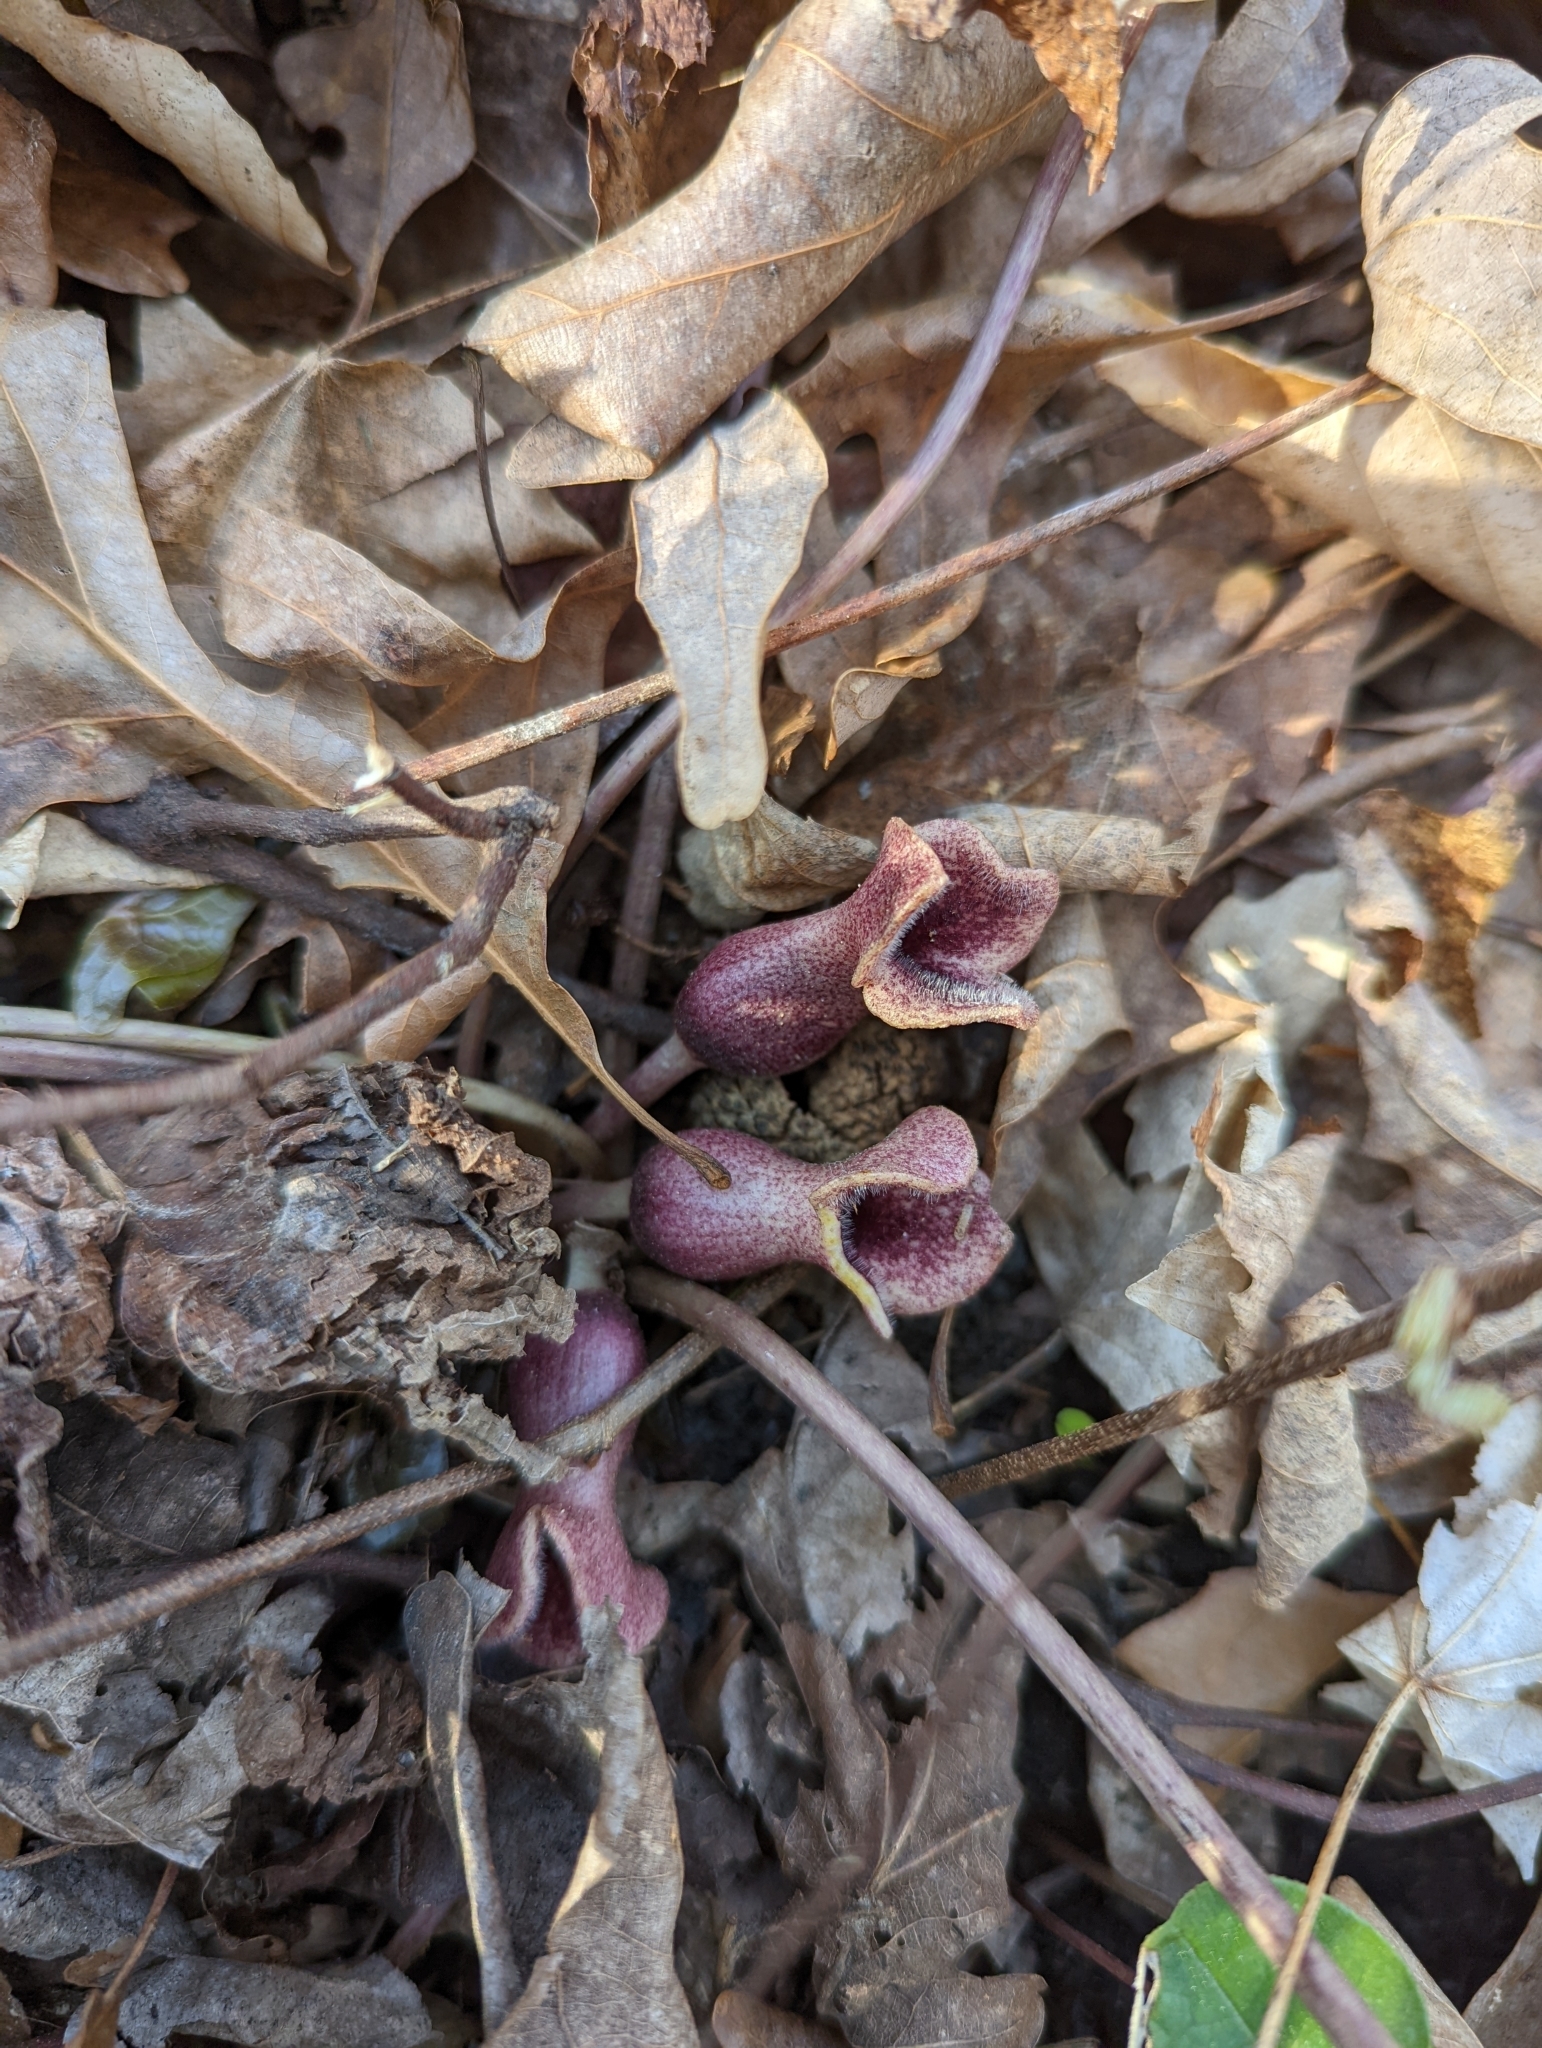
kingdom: Plantae
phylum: Tracheophyta
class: Magnoliopsida
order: Piperales
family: Aristolochiaceae
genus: Hexastylis
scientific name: Hexastylis arifolia
